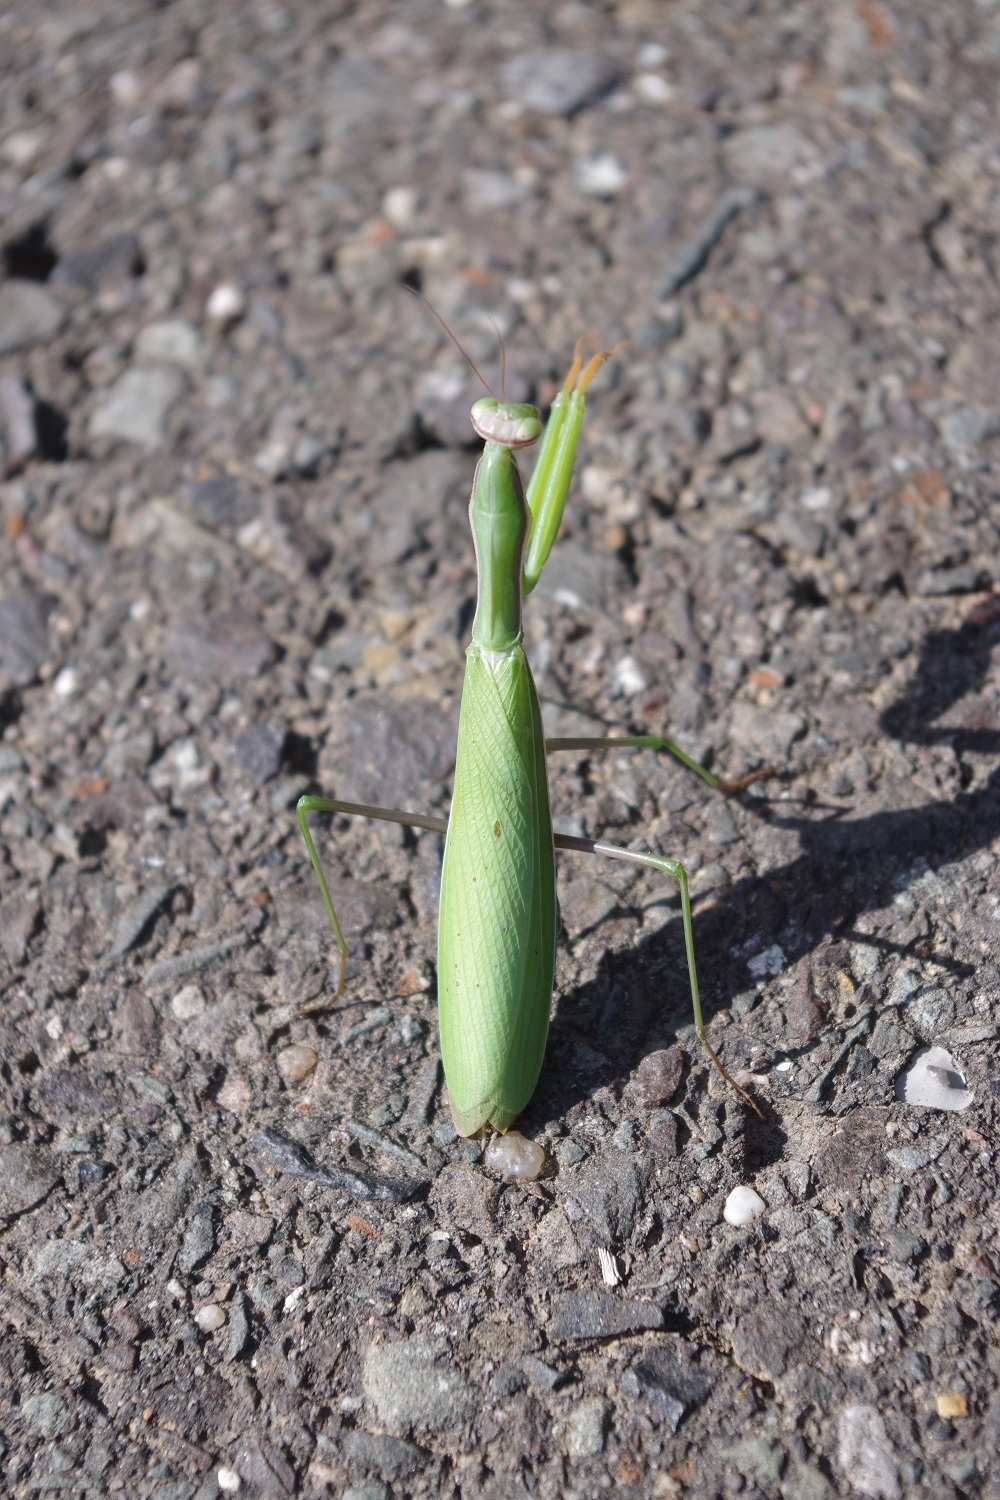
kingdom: Animalia
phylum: Arthropoda
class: Insecta
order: Mantodea
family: Mantidae
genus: Mantis
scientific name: Mantis religiosa
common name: Praying mantis
